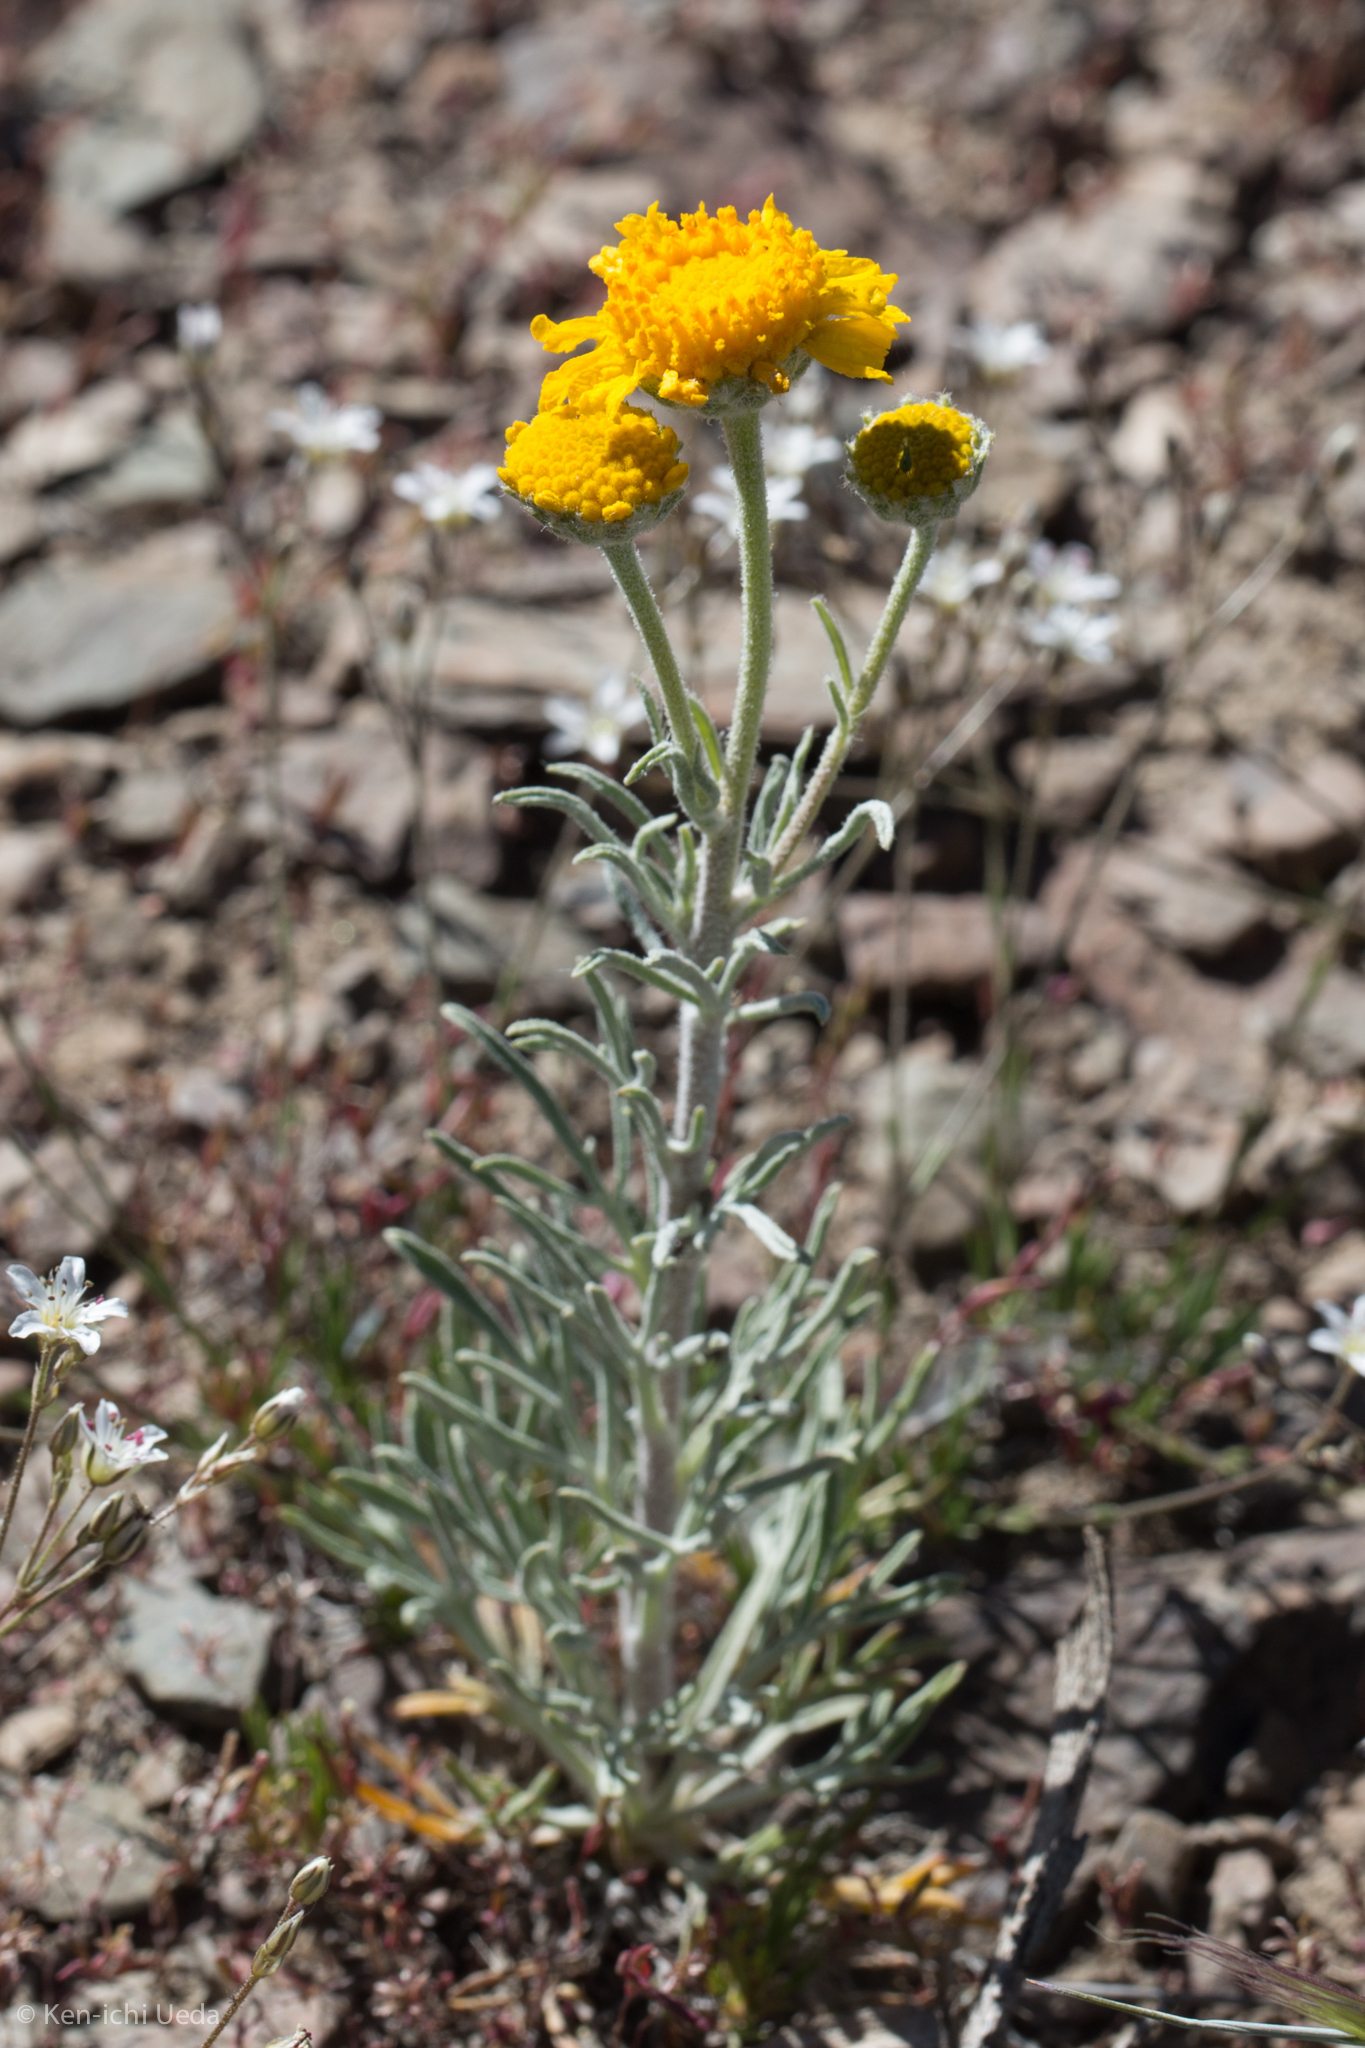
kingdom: Plantae
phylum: Tracheophyta
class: Magnoliopsida
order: Asterales
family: Asteraceae
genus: Hymenoxys
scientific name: Hymenoxys cooperi
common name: Cooper's bitterweed
